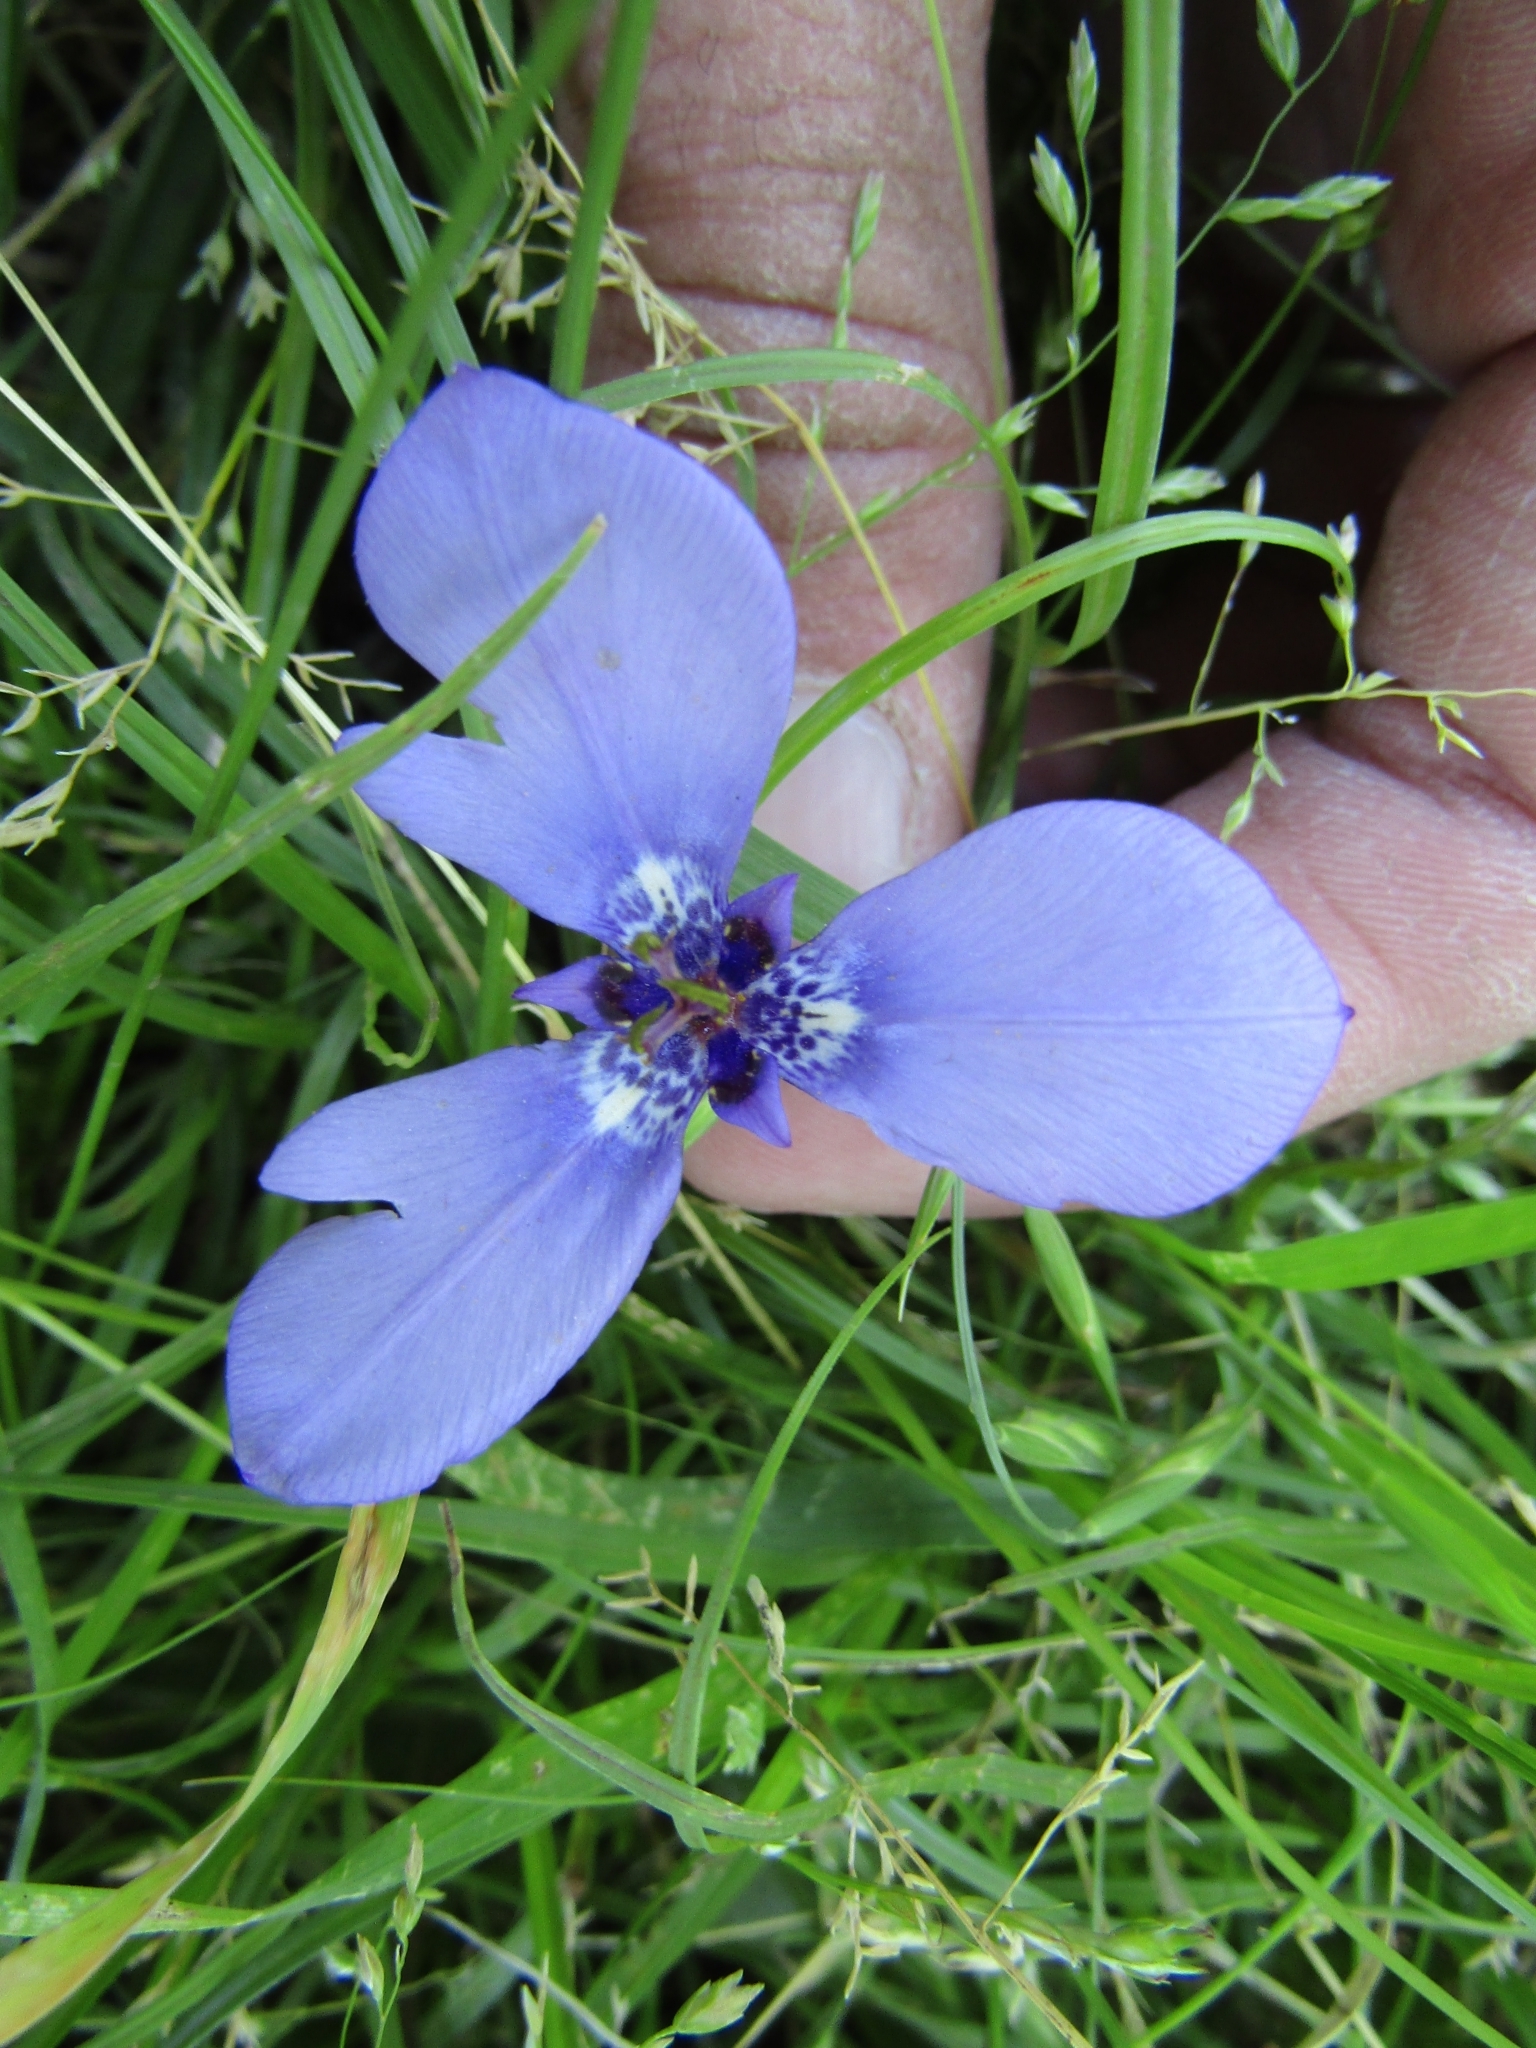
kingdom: Plantae
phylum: Tracheophyta
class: Liliopsida
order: Asparagales
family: Iridaceae
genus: Herbertia
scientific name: Herbertia lahue
